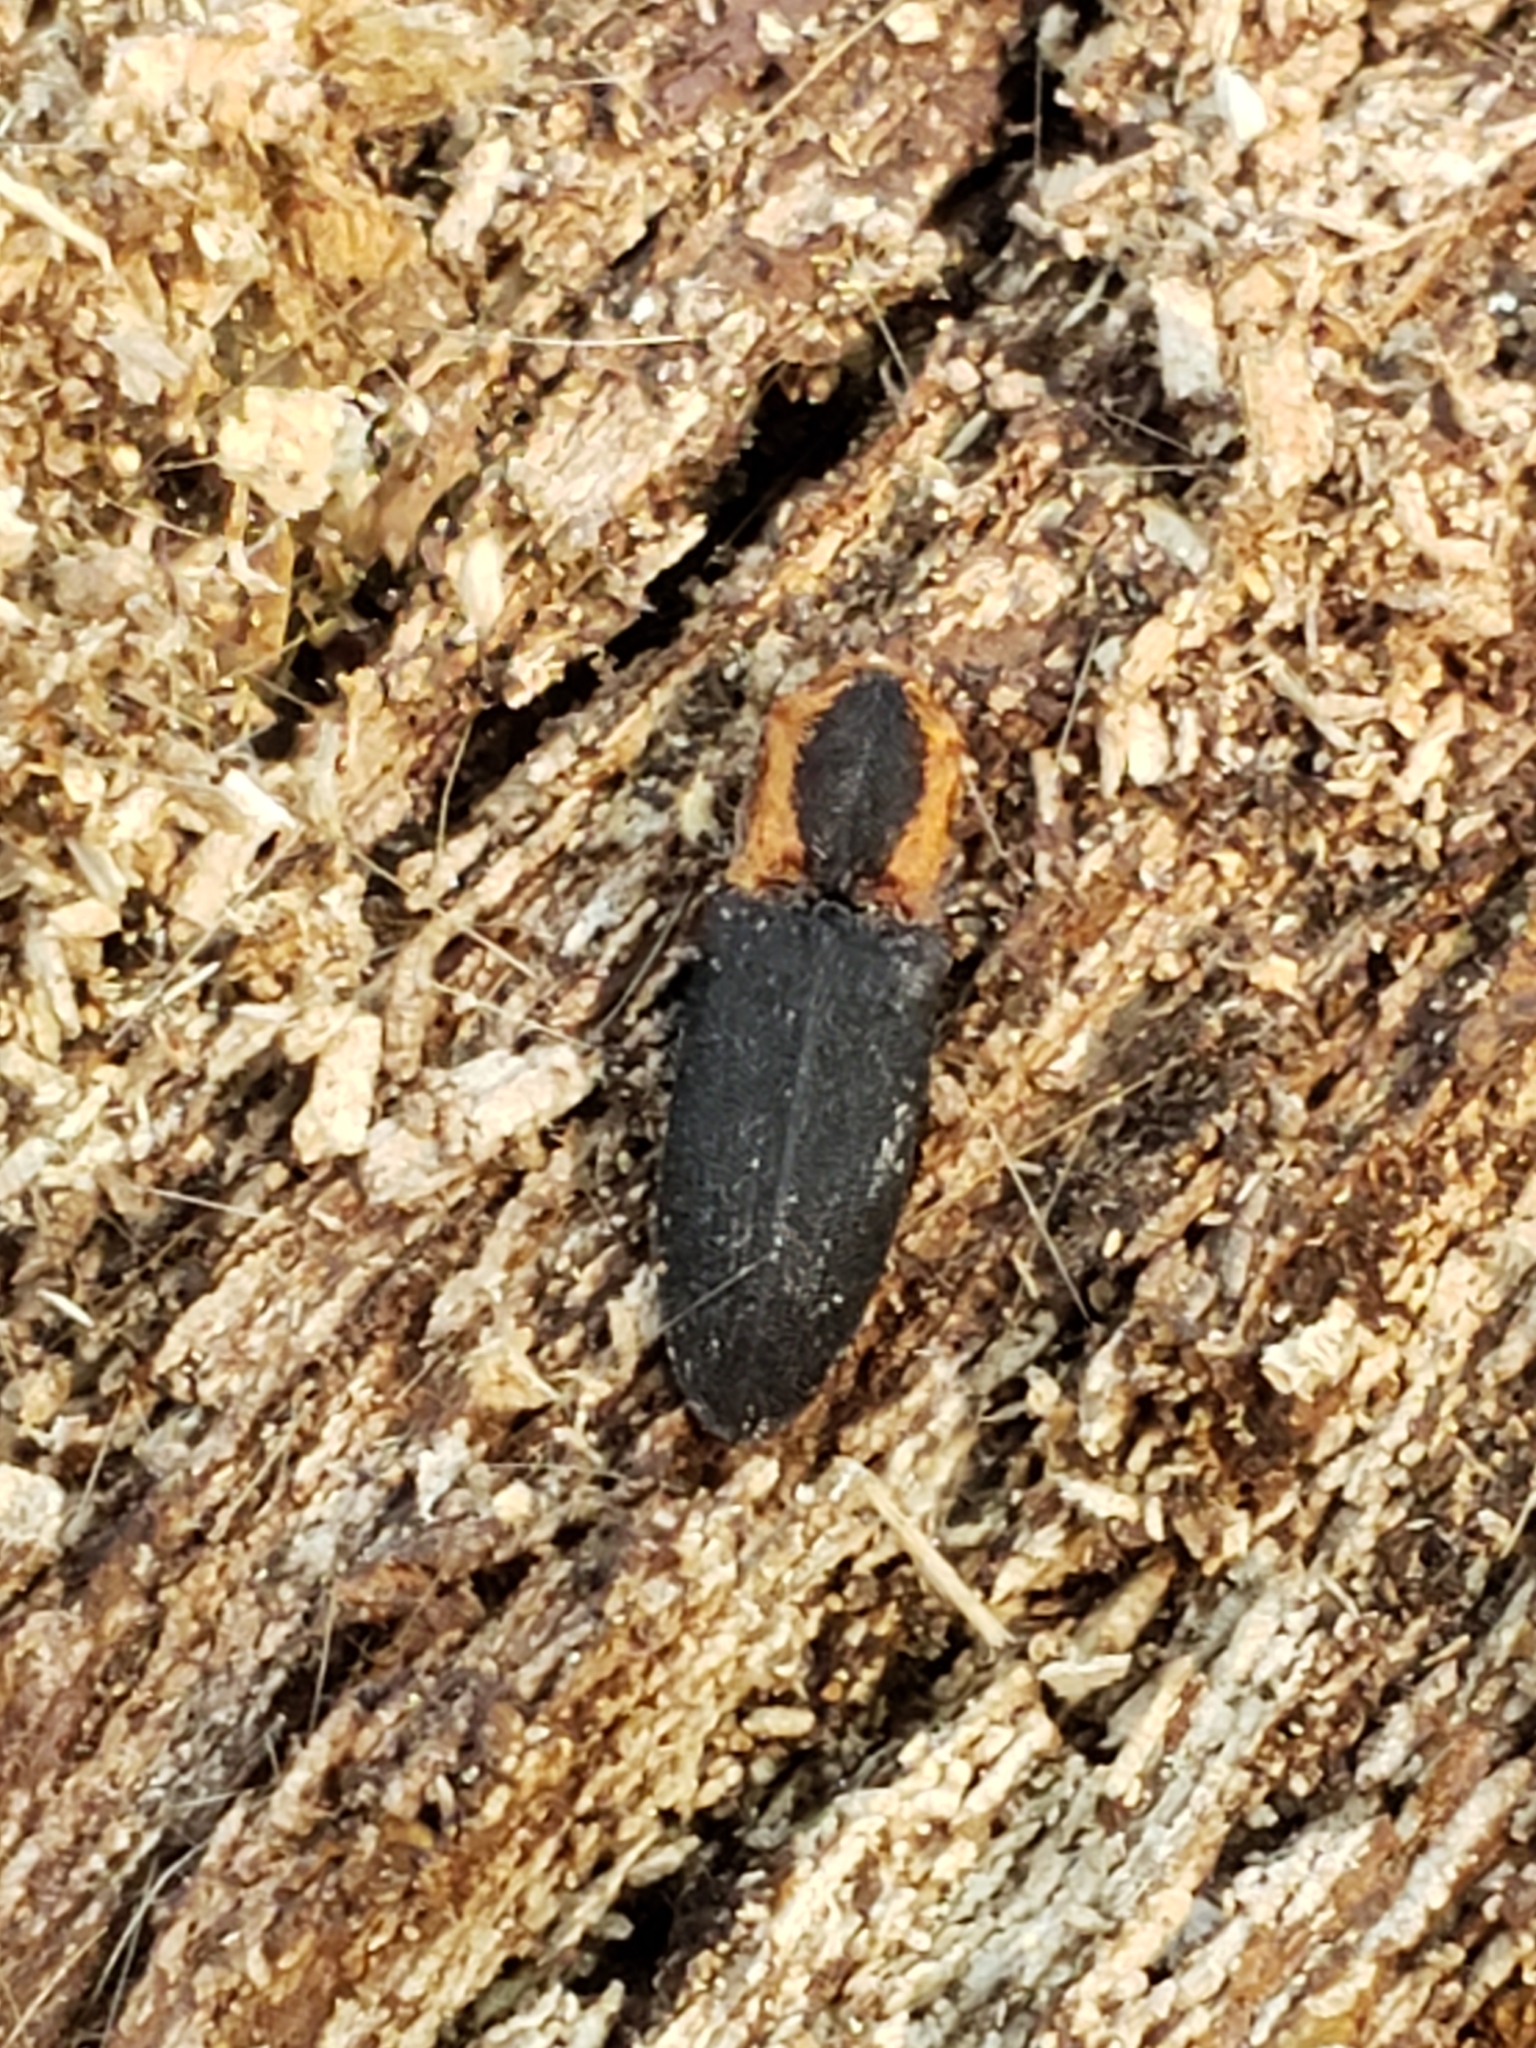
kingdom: Animalia
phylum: Arthropoda
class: Insecta
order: Coleoptera
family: Elateridae
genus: Lacon
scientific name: Lacon discoideus
